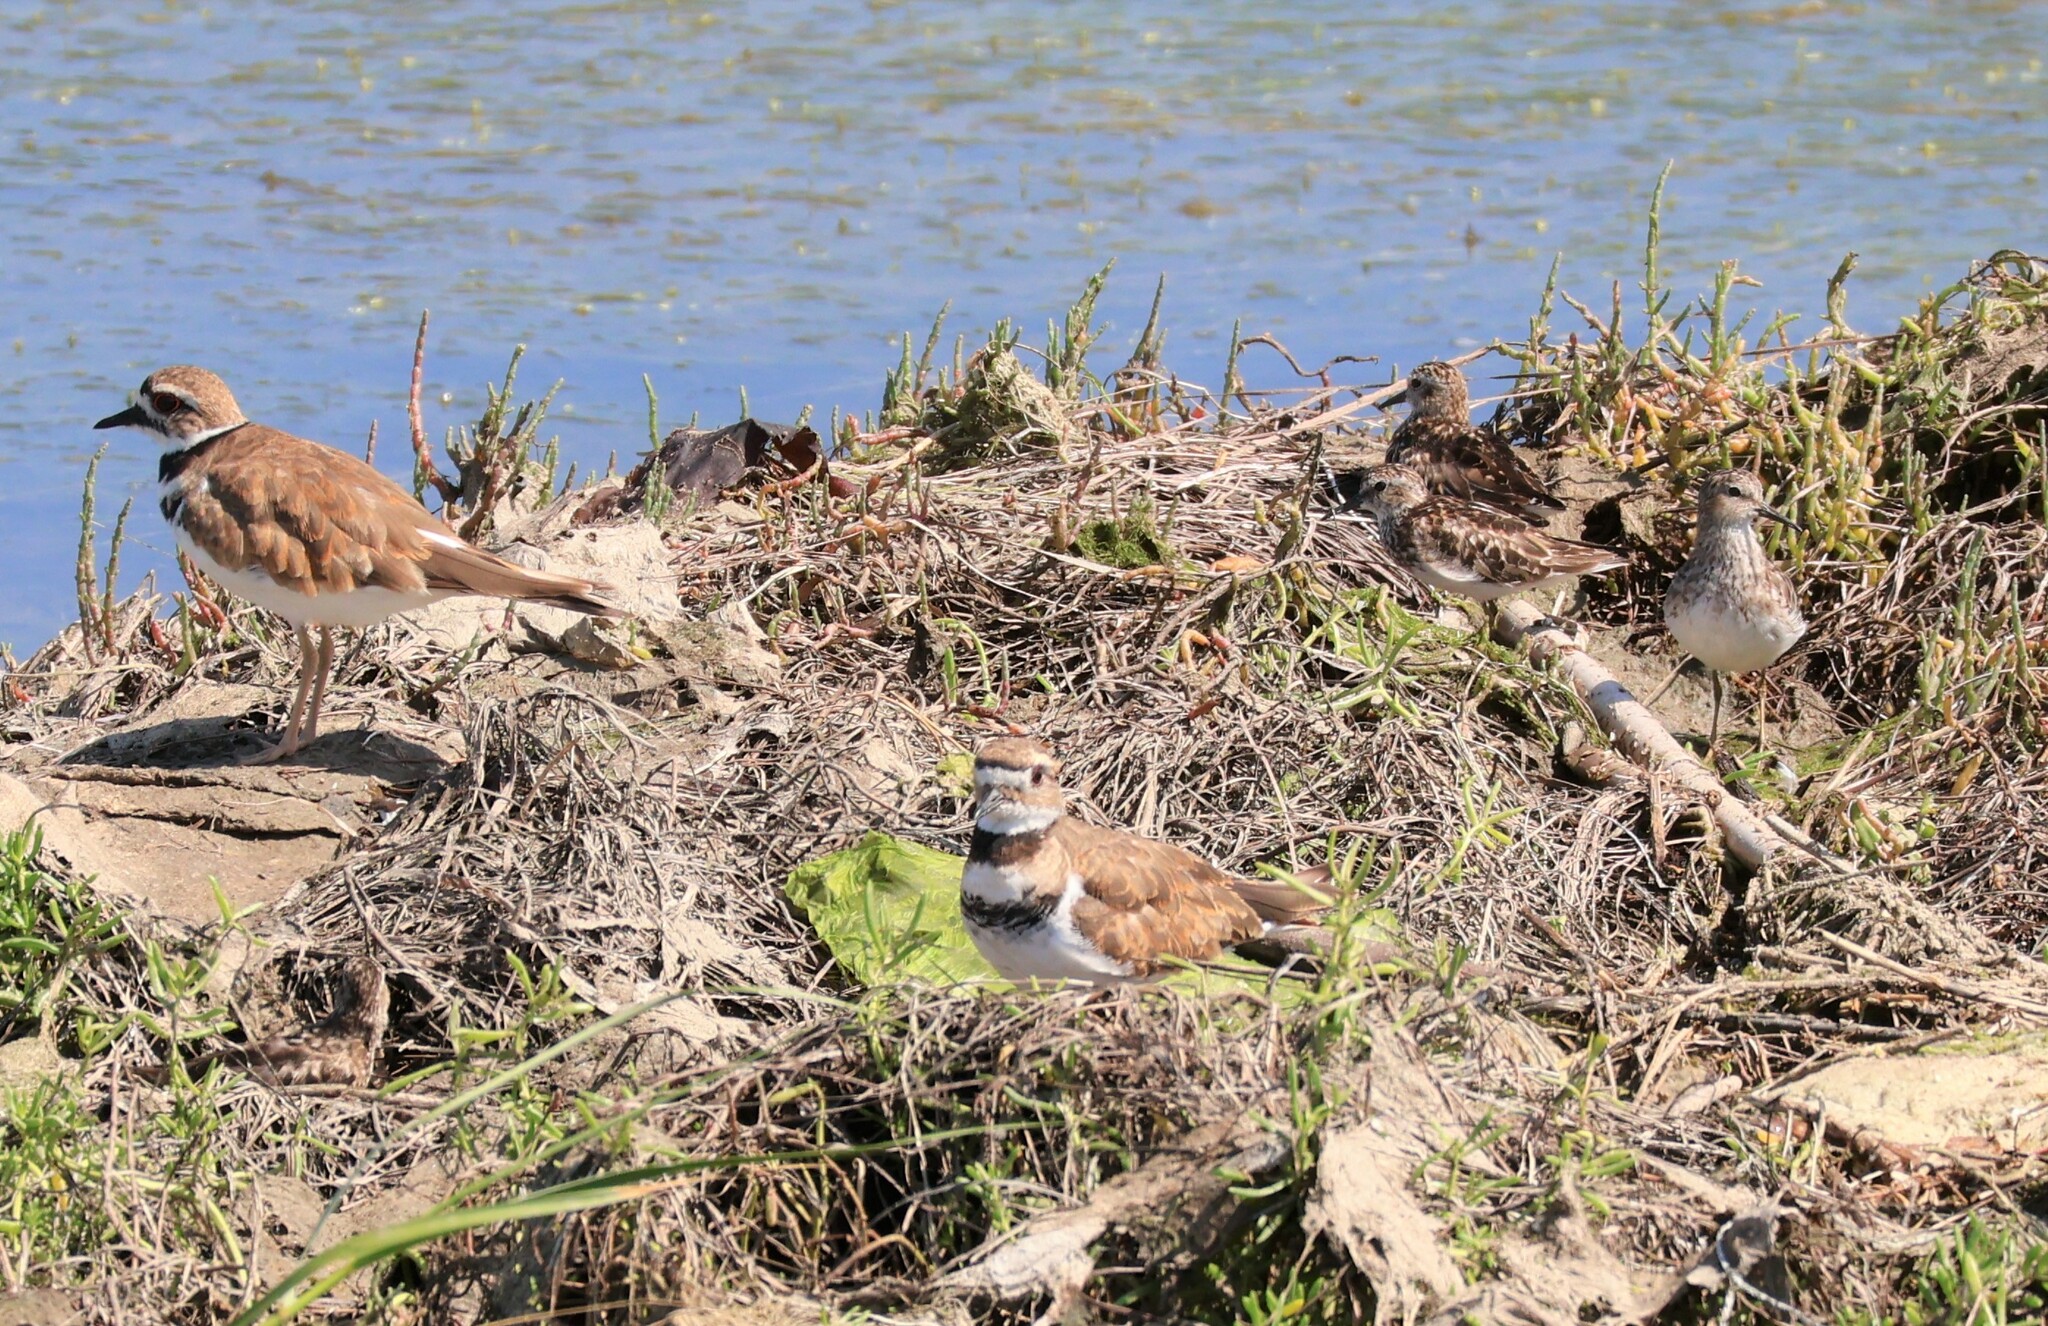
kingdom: Animalia
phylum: Chordata
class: Aves
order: Charadriiformes
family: Charadriidae
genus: Charadrius
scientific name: Charadrius vociferus
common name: Killdeer
